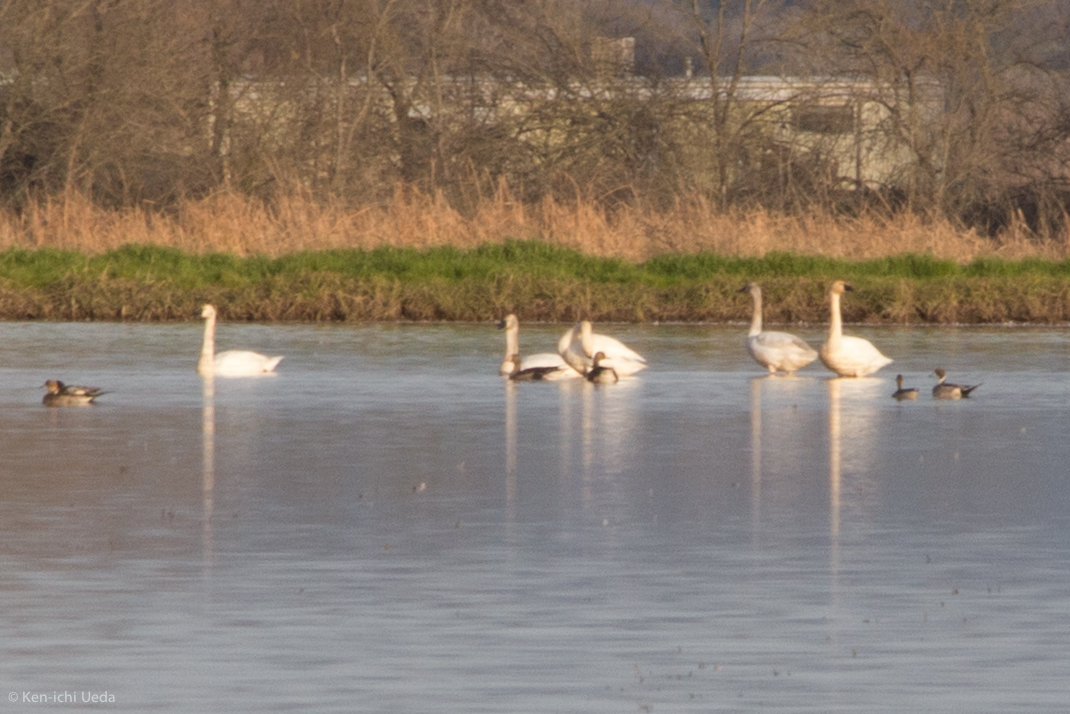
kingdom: Animalia
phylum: Chordata
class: Aves
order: Anseriformes
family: Anatidae
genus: Cygnus
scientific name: Cygnus columbianus
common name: Tundra swan
